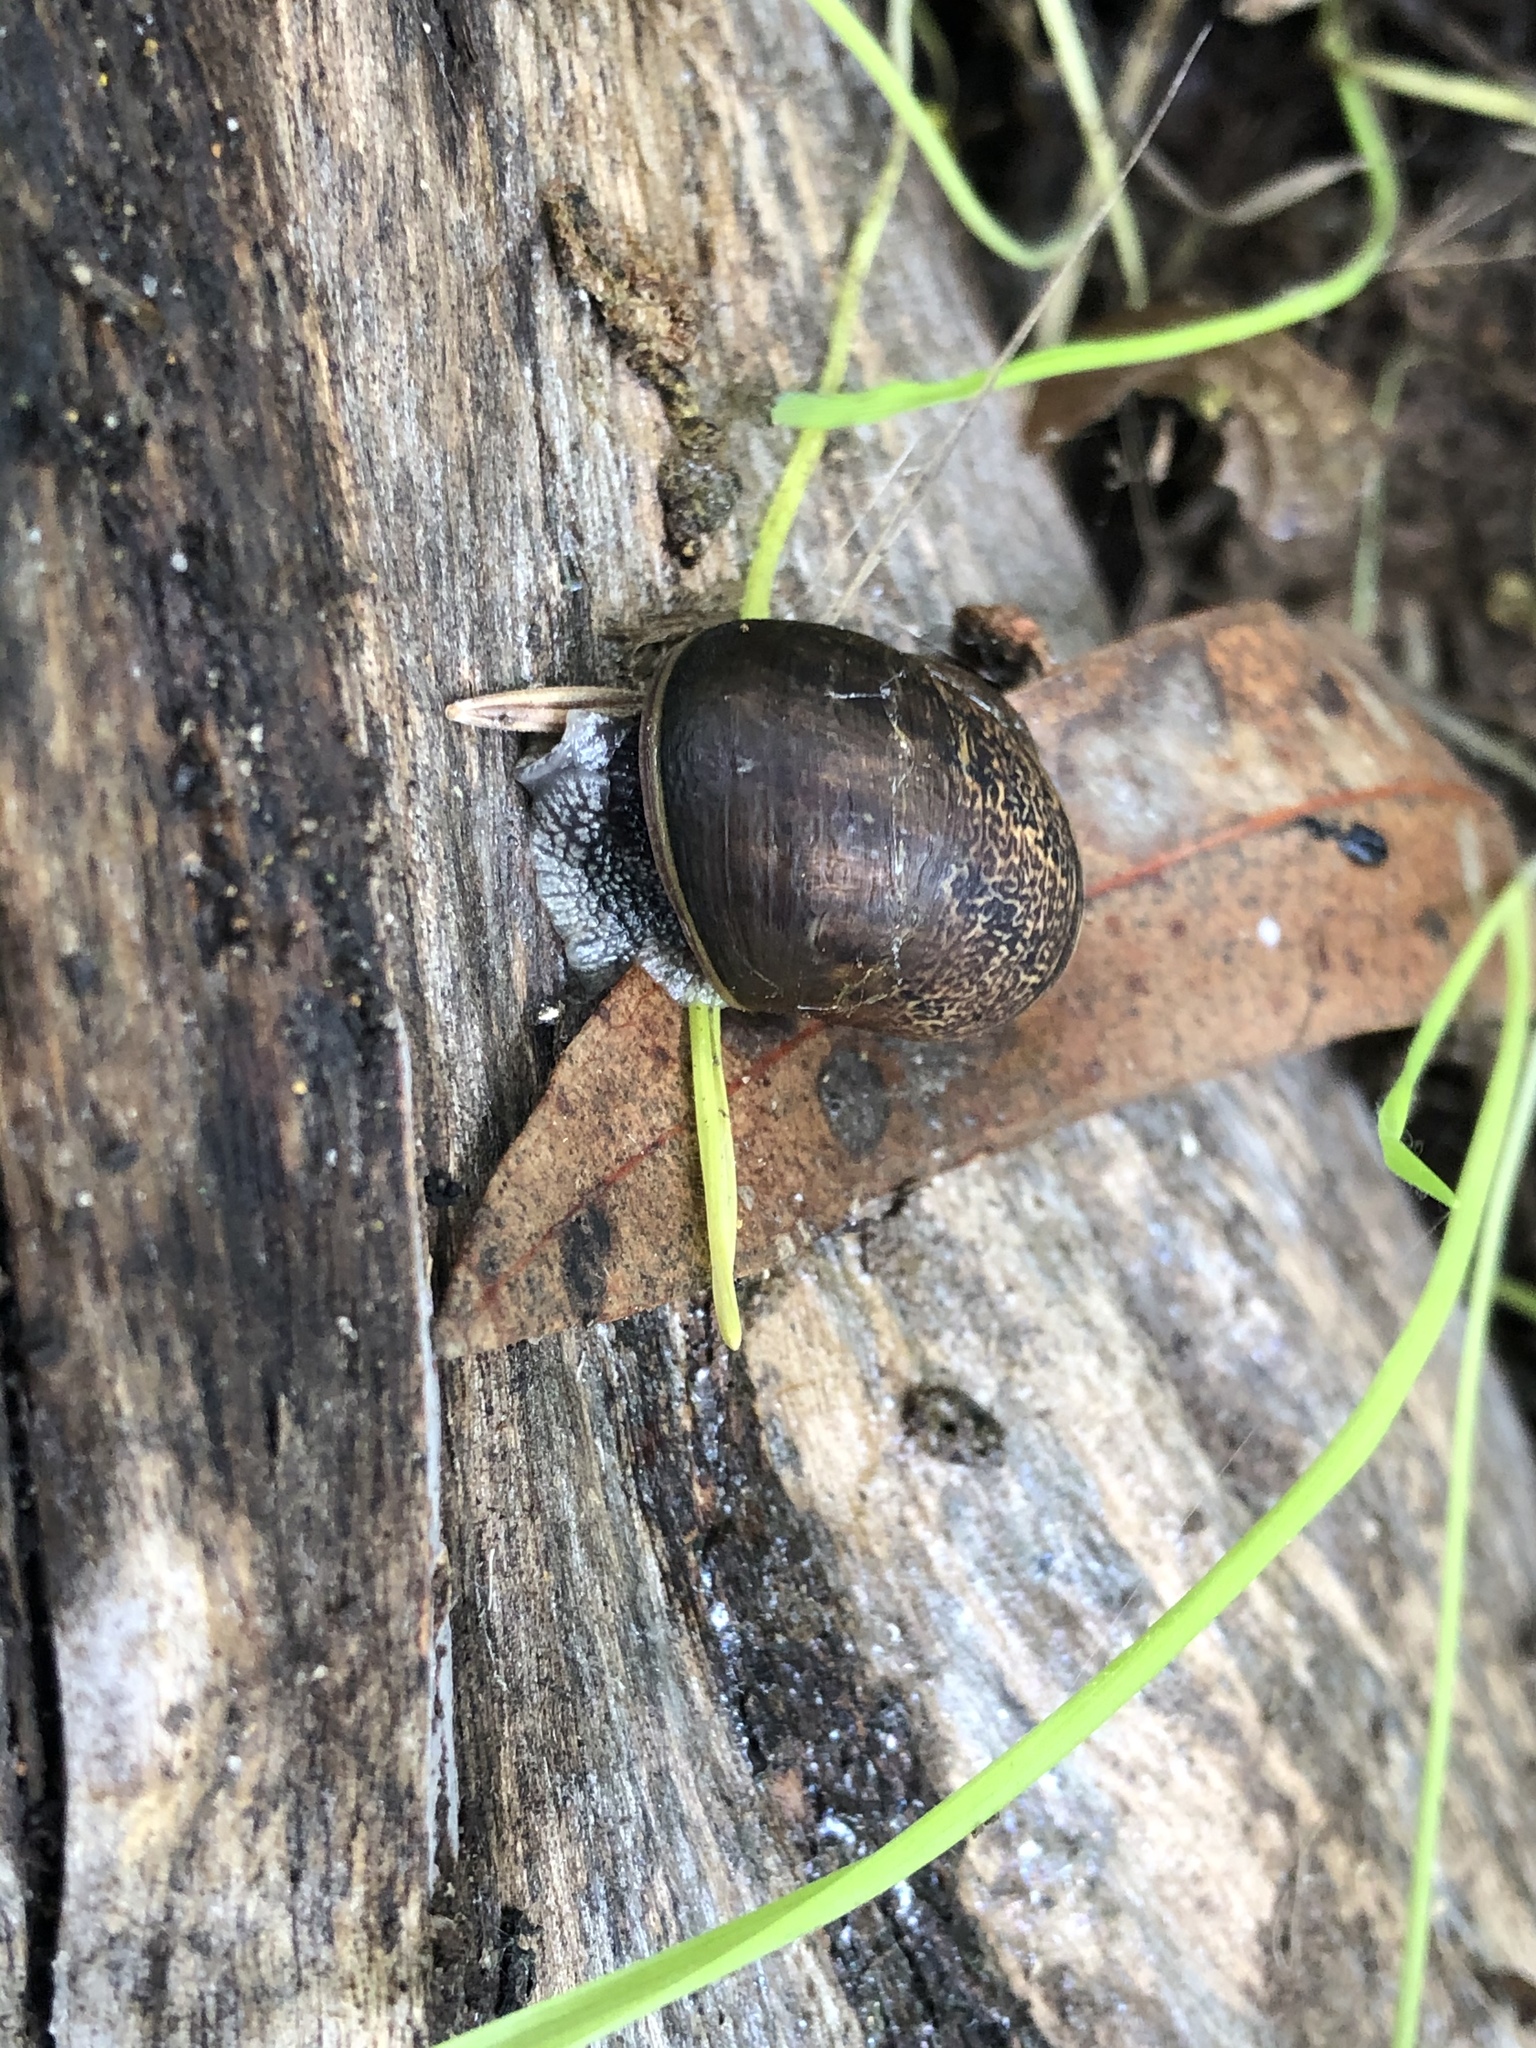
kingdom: Animalia
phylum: Mollusca
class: Gastropoda
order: Stylommatophora
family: Helicidae
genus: Cornu
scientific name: Cornu aspersum
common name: Brown garden snail
